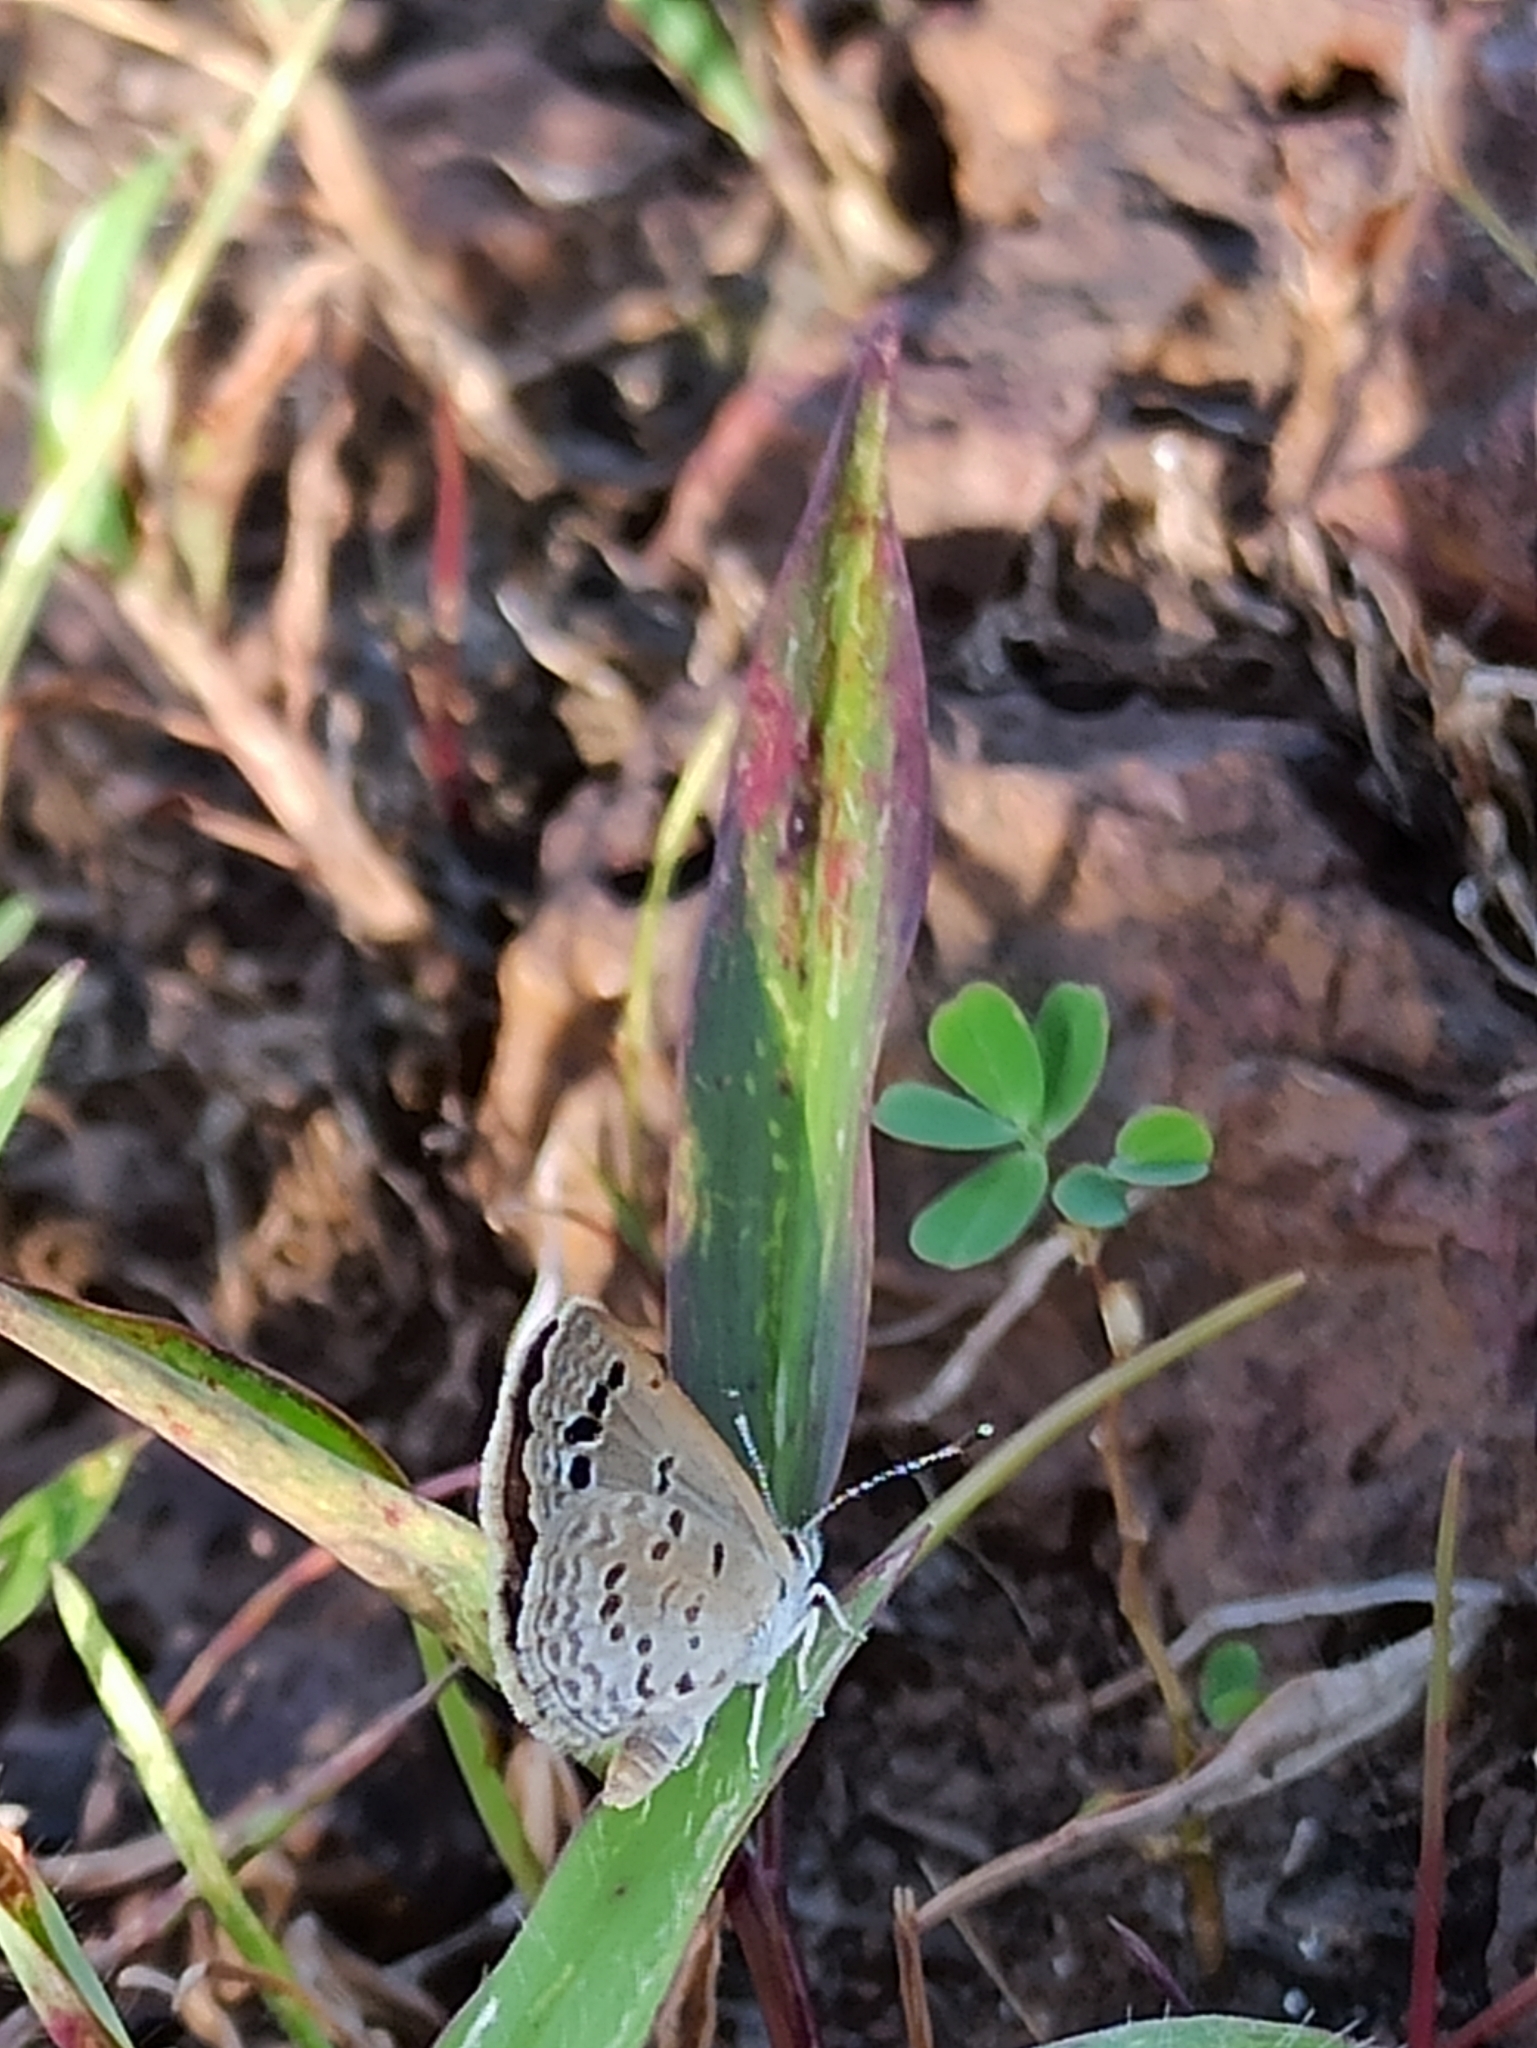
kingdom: Animalia
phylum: Arthropoda
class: Insecta
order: Lepidoptera
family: Lycaenidae
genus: Zizina
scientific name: Zizina otis
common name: Lesser grass blue
